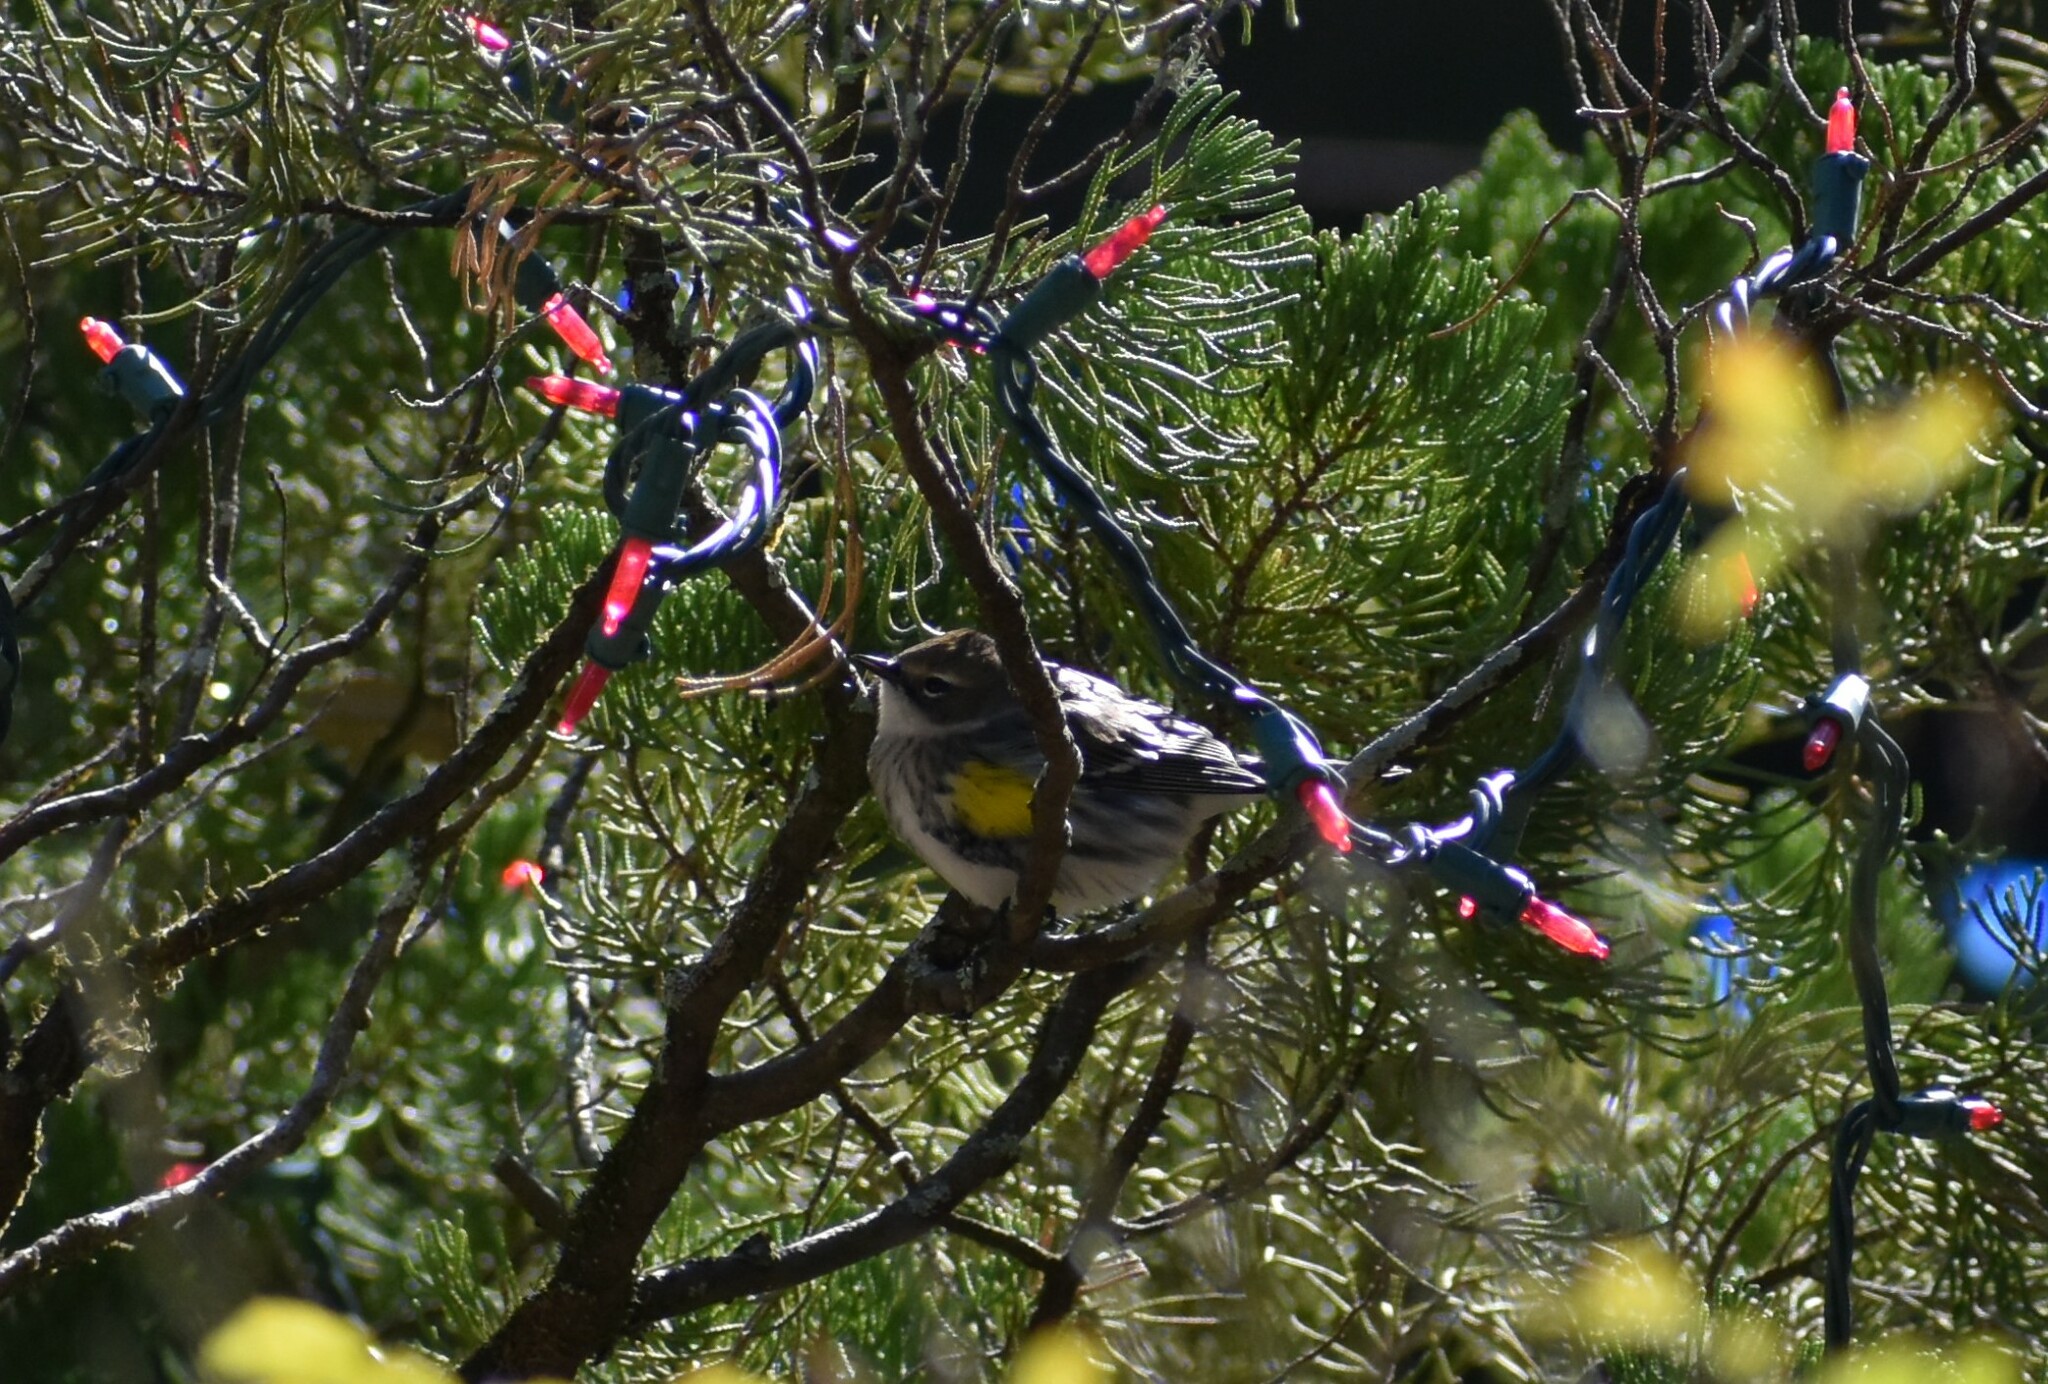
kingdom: Animalia
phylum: Chordata
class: Aves
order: Passeriformes
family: Parulidae
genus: Setophaga
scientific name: Setophaga coronata
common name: Myrtle warbler
